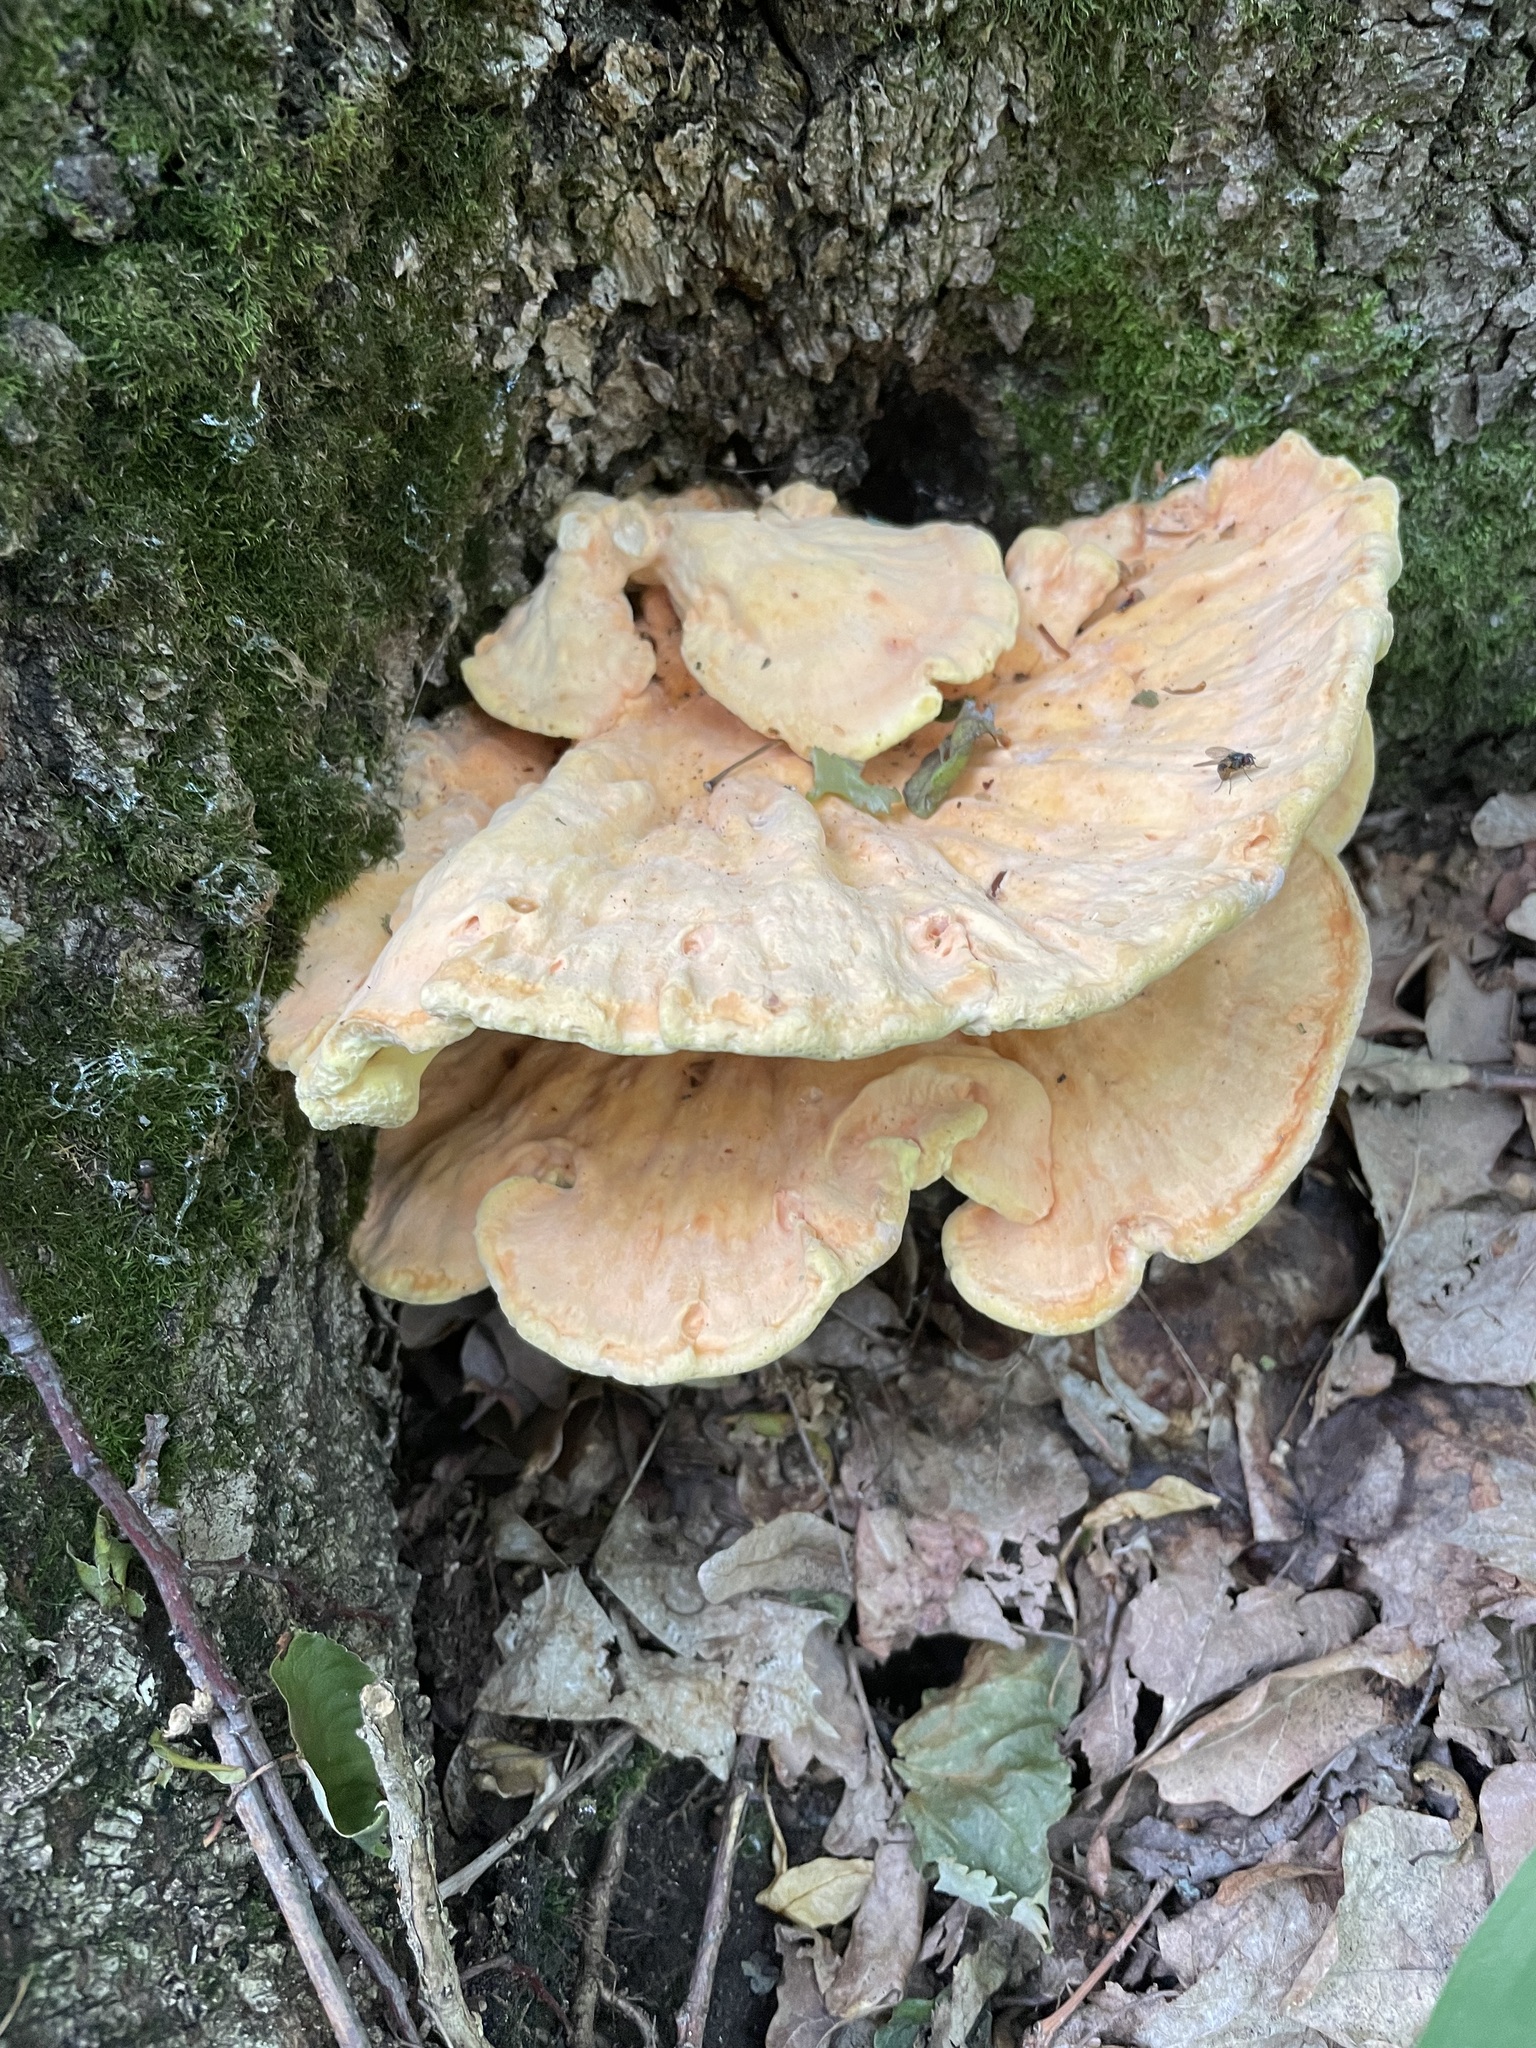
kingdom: Fungi
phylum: Basidiomycota
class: Agaricomycetes
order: Polyporales
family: Laetiporaceae
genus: Laetiporus
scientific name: Laetiporus sulphureus
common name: Chicken of the woods
